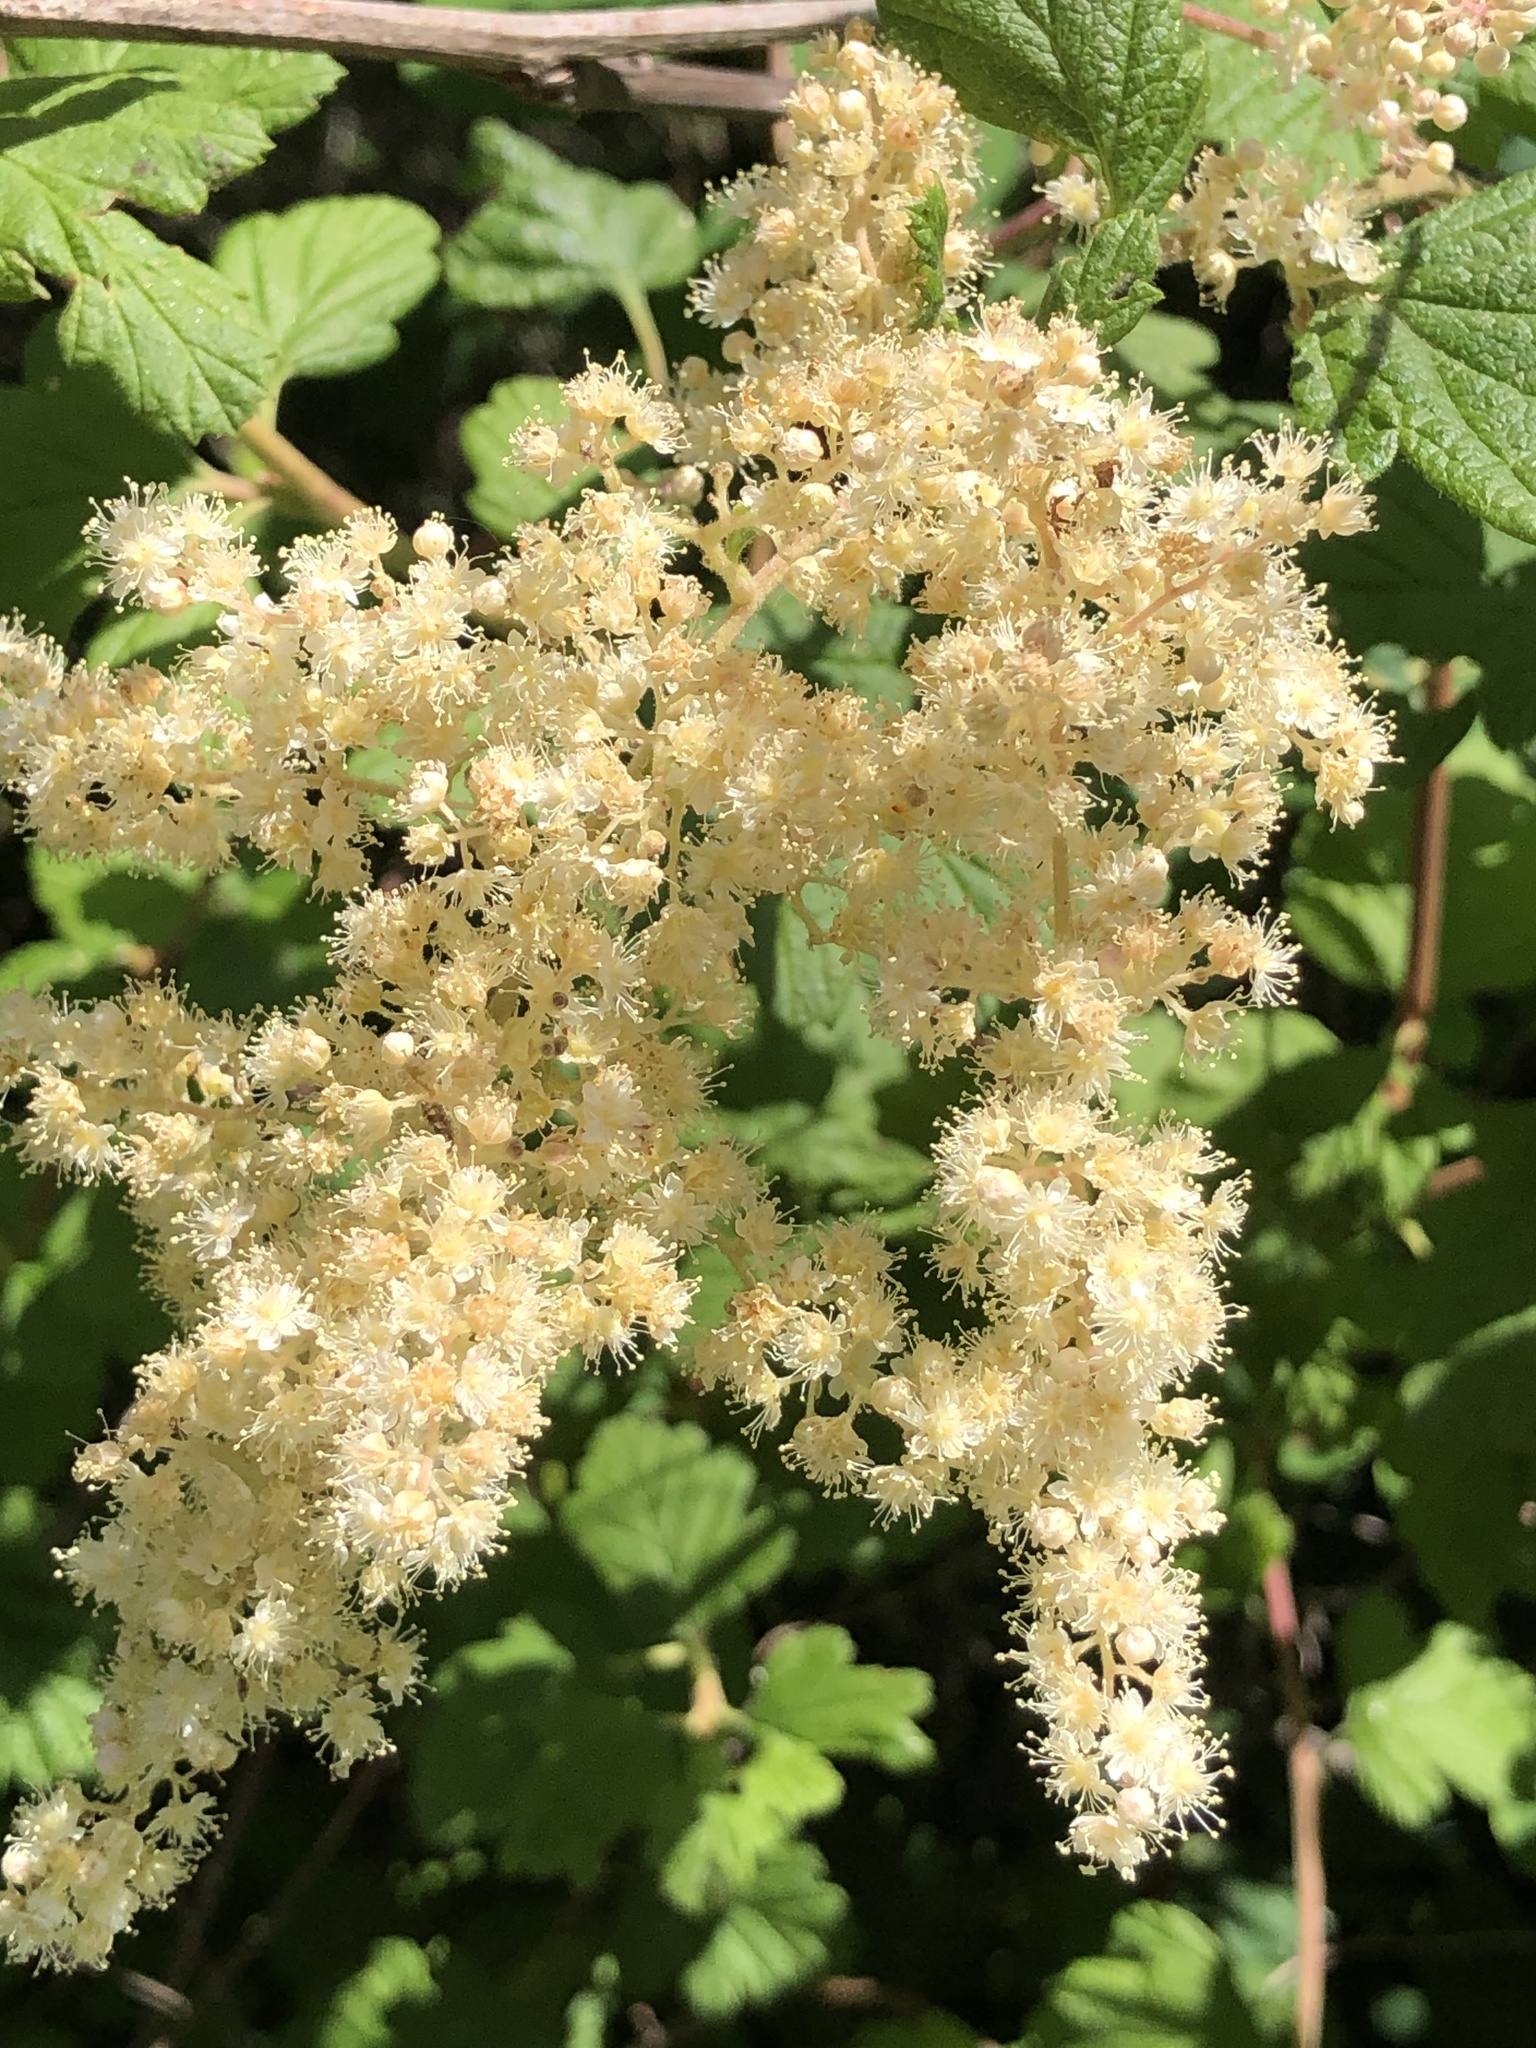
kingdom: Plantae
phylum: Tracheophyta
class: Magnoliopsida
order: Rosales
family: Rosaceae
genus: Holodiscus
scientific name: Holodiscus discolor
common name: Oceanspray
